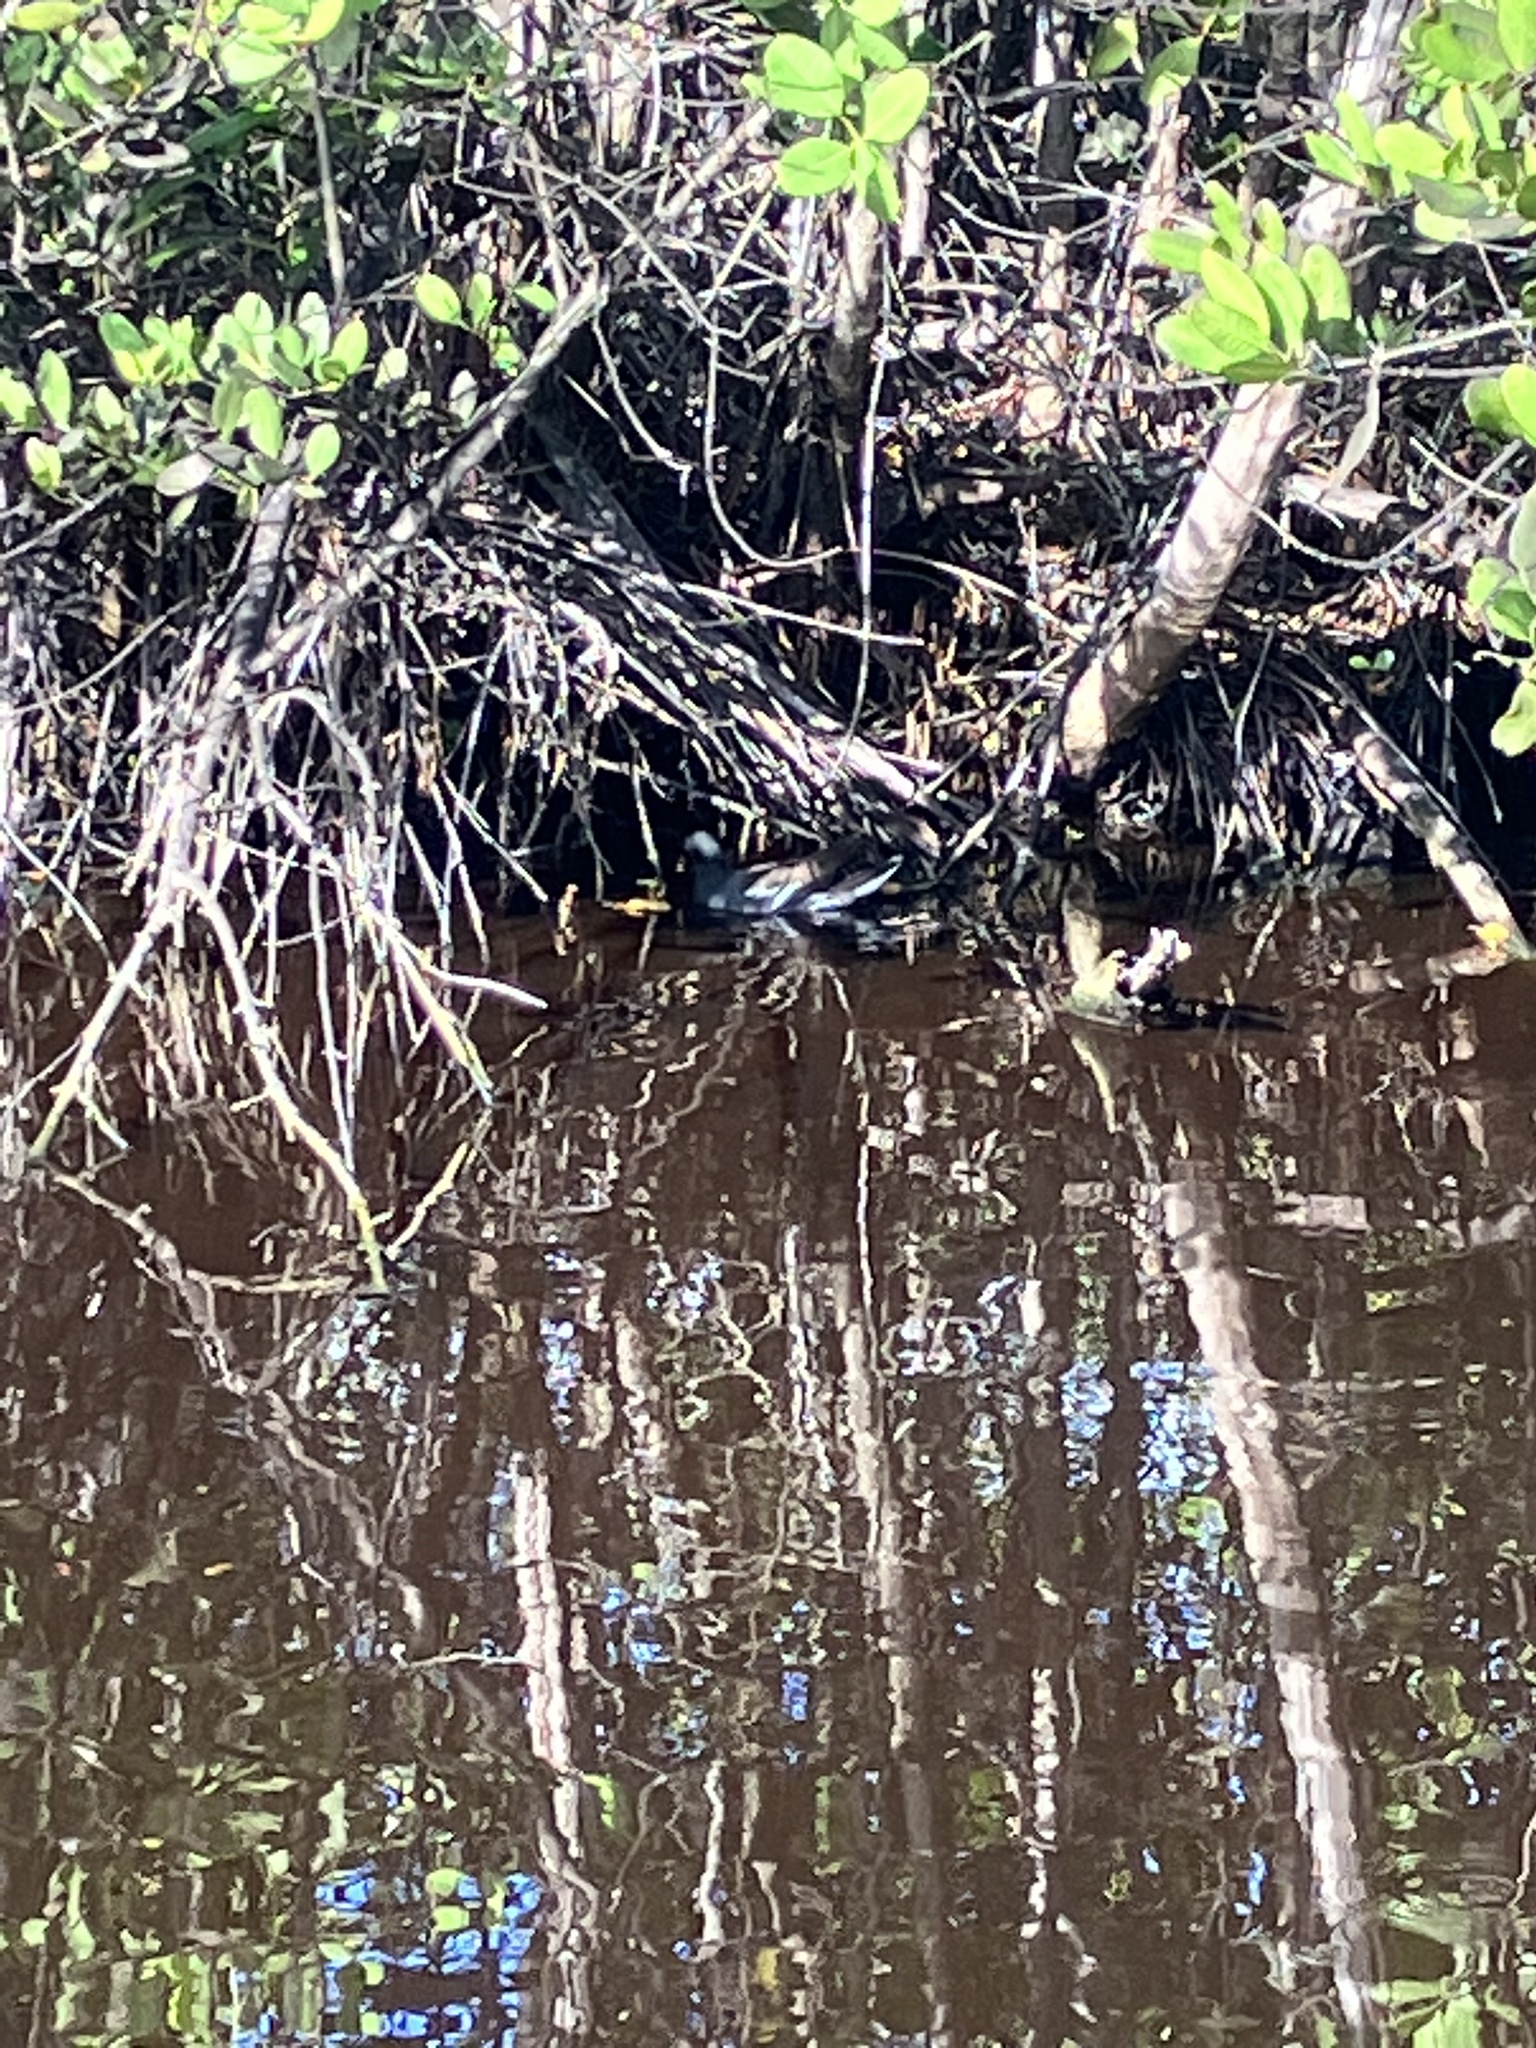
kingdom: Animalia
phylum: Chordata
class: Aves
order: Gruiformes
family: Rallidae
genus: Gallinula
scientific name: Gallinula chloropus
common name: Common moorhen
